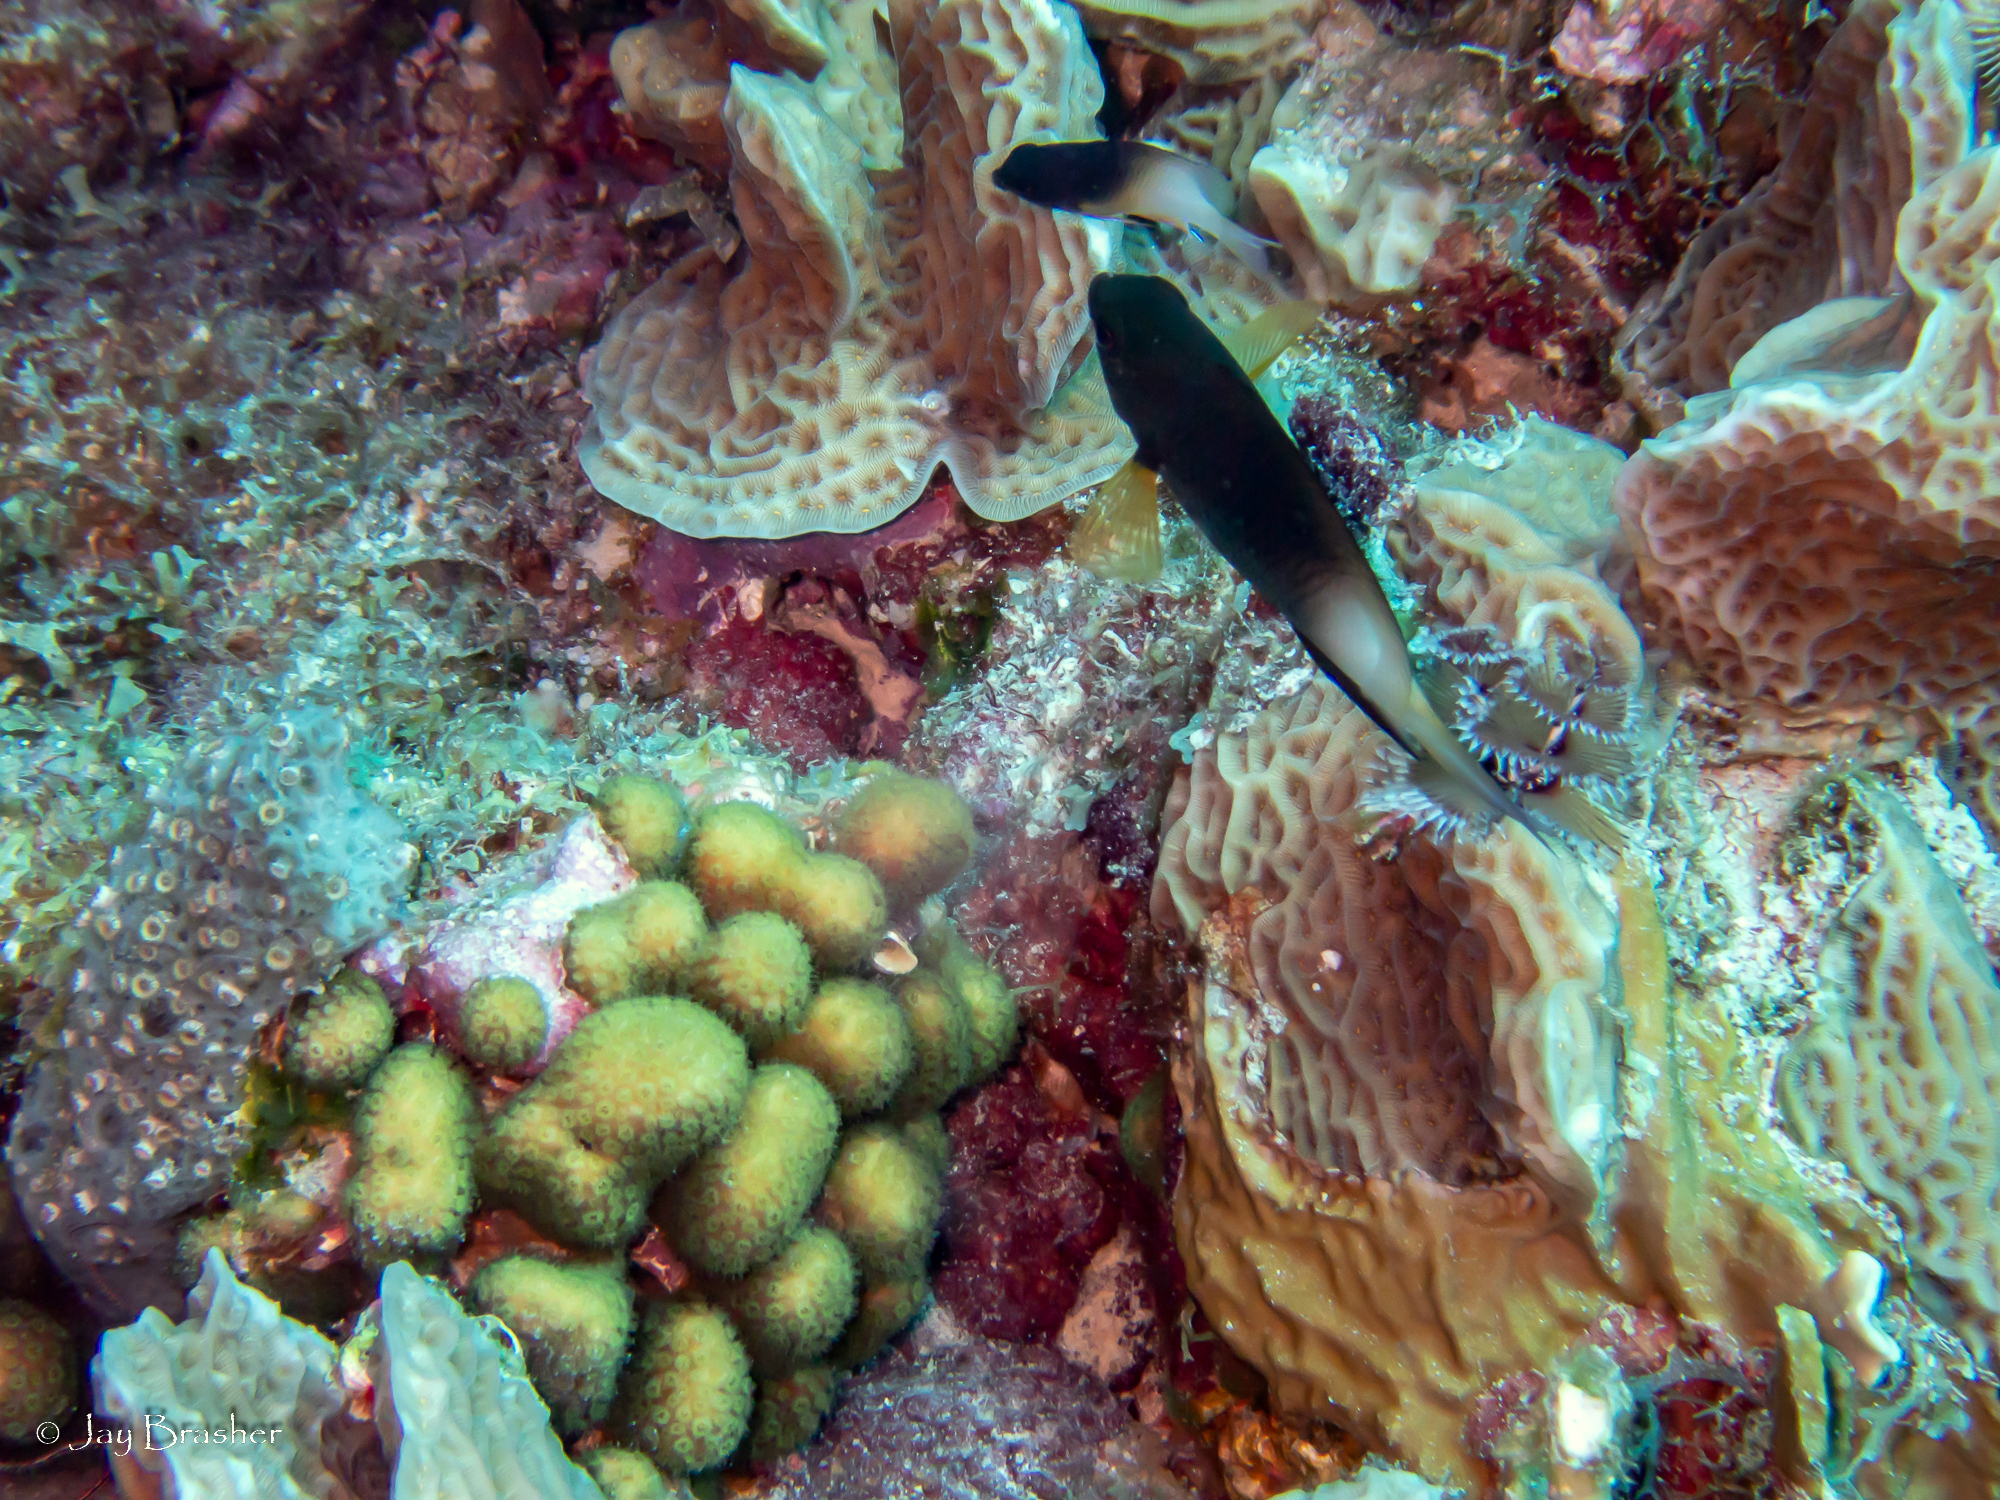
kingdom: Animalia
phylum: Chordata
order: Perciformes
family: Pomacentridae
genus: Stegastes
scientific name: Stegastes partitus
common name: Bicolor damselfish
